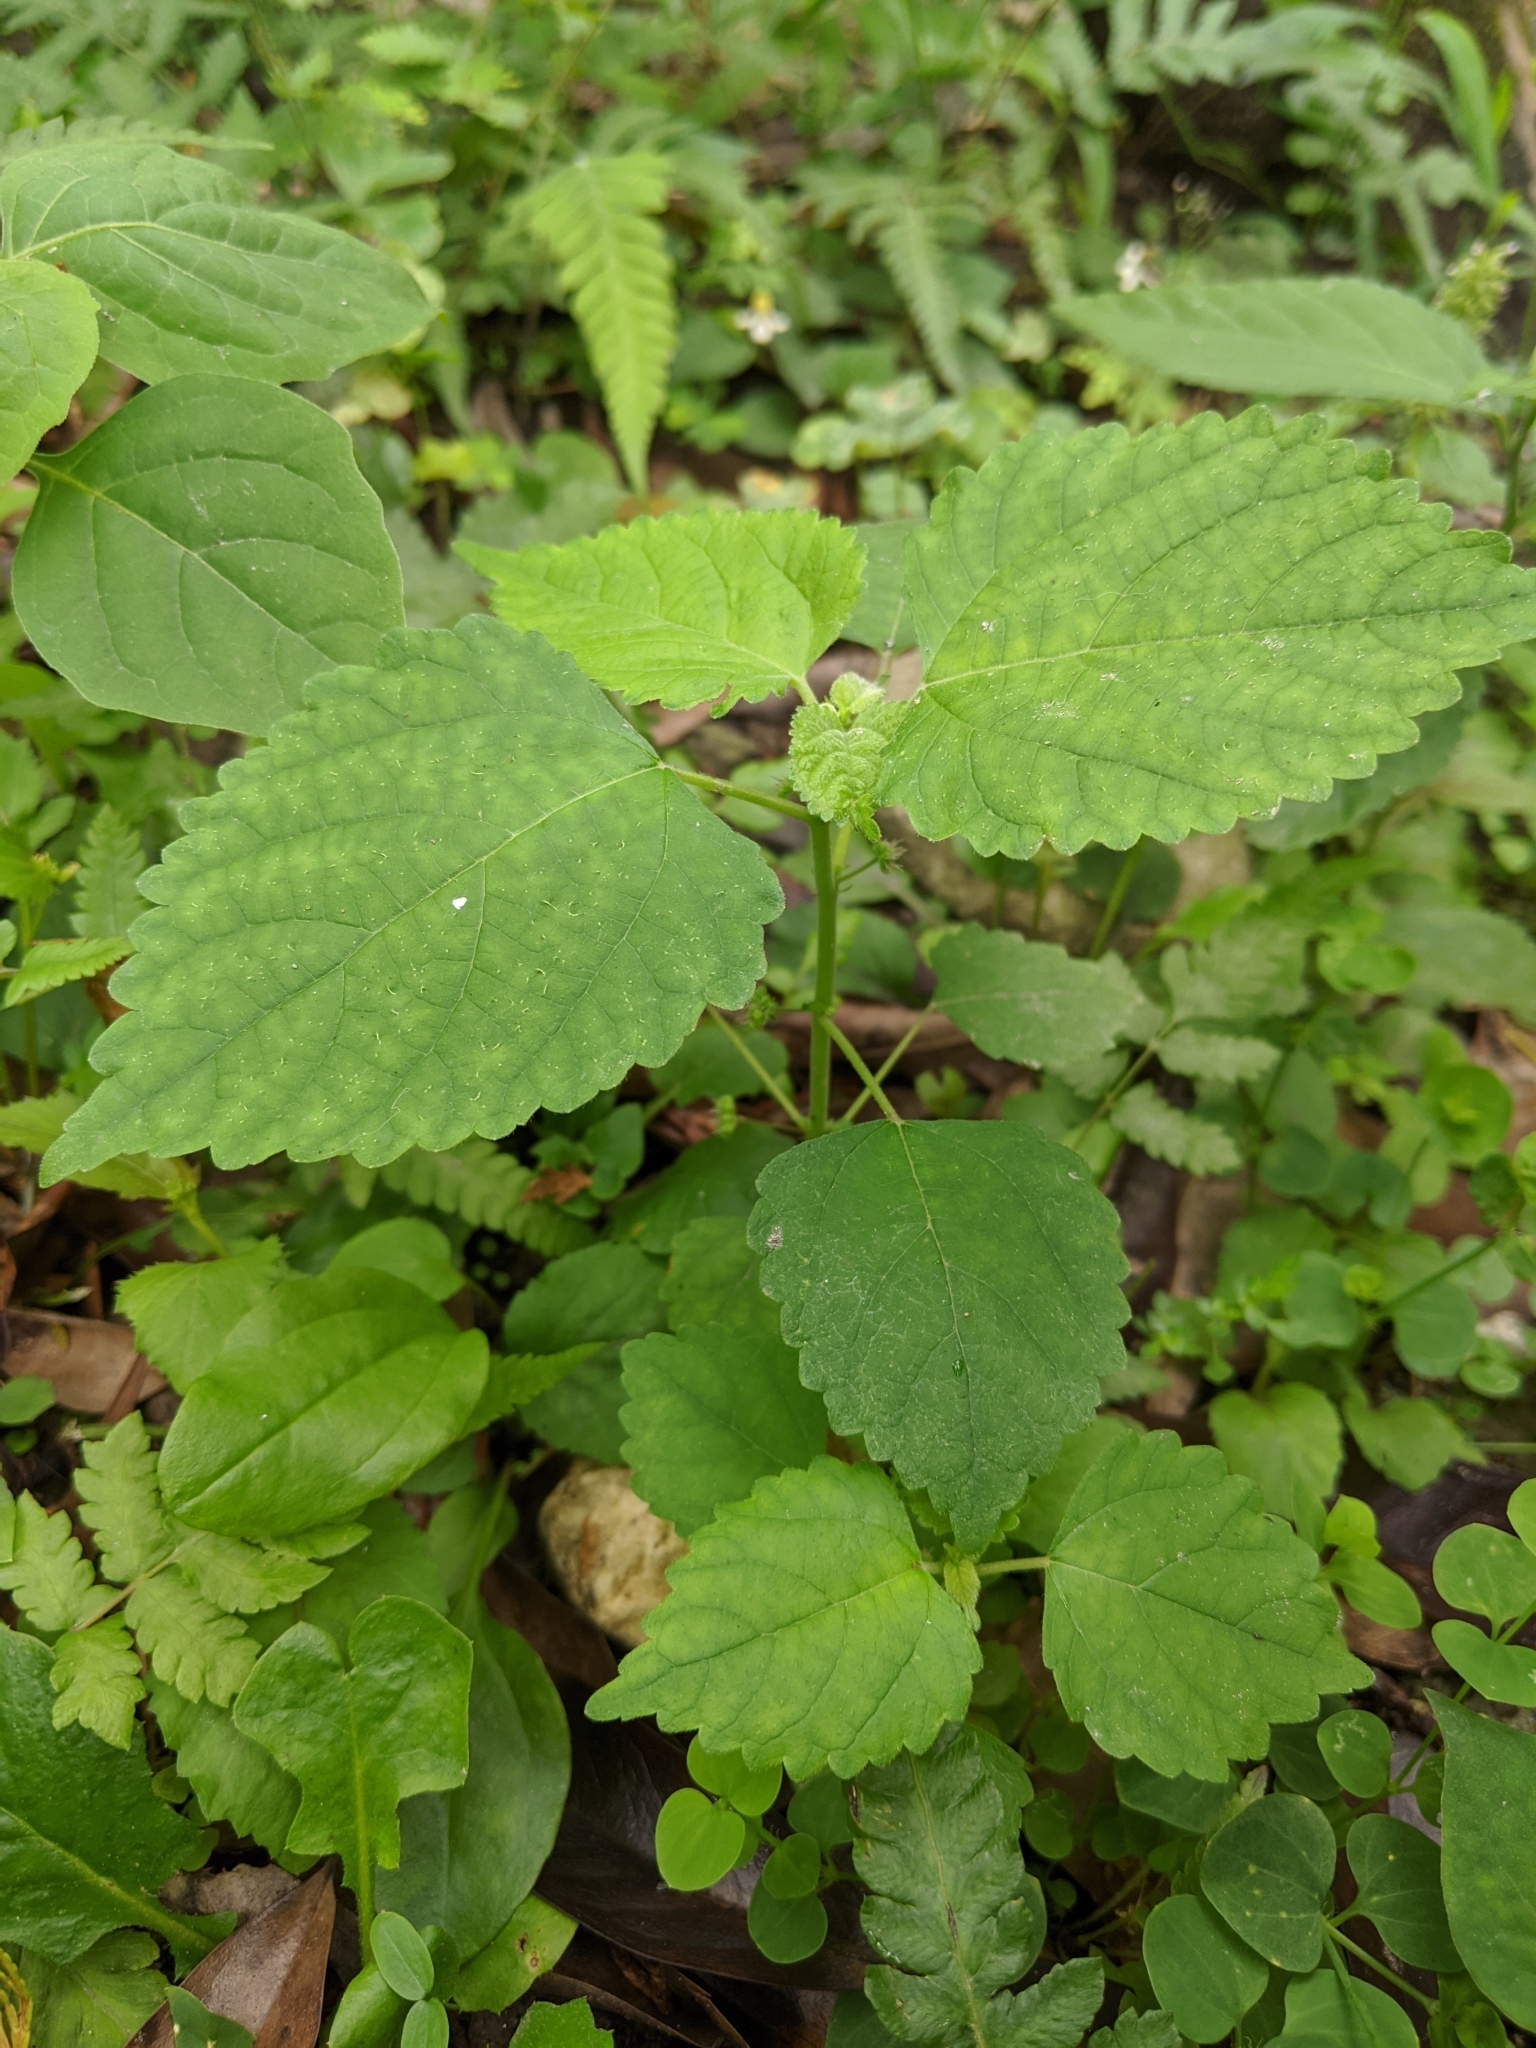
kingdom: Plantae
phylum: Tracheophyta
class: Magnoliopsida
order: Rosales
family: Moraceae
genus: Fatoua
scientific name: Fatoua villosa
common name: Hairy crabweed
